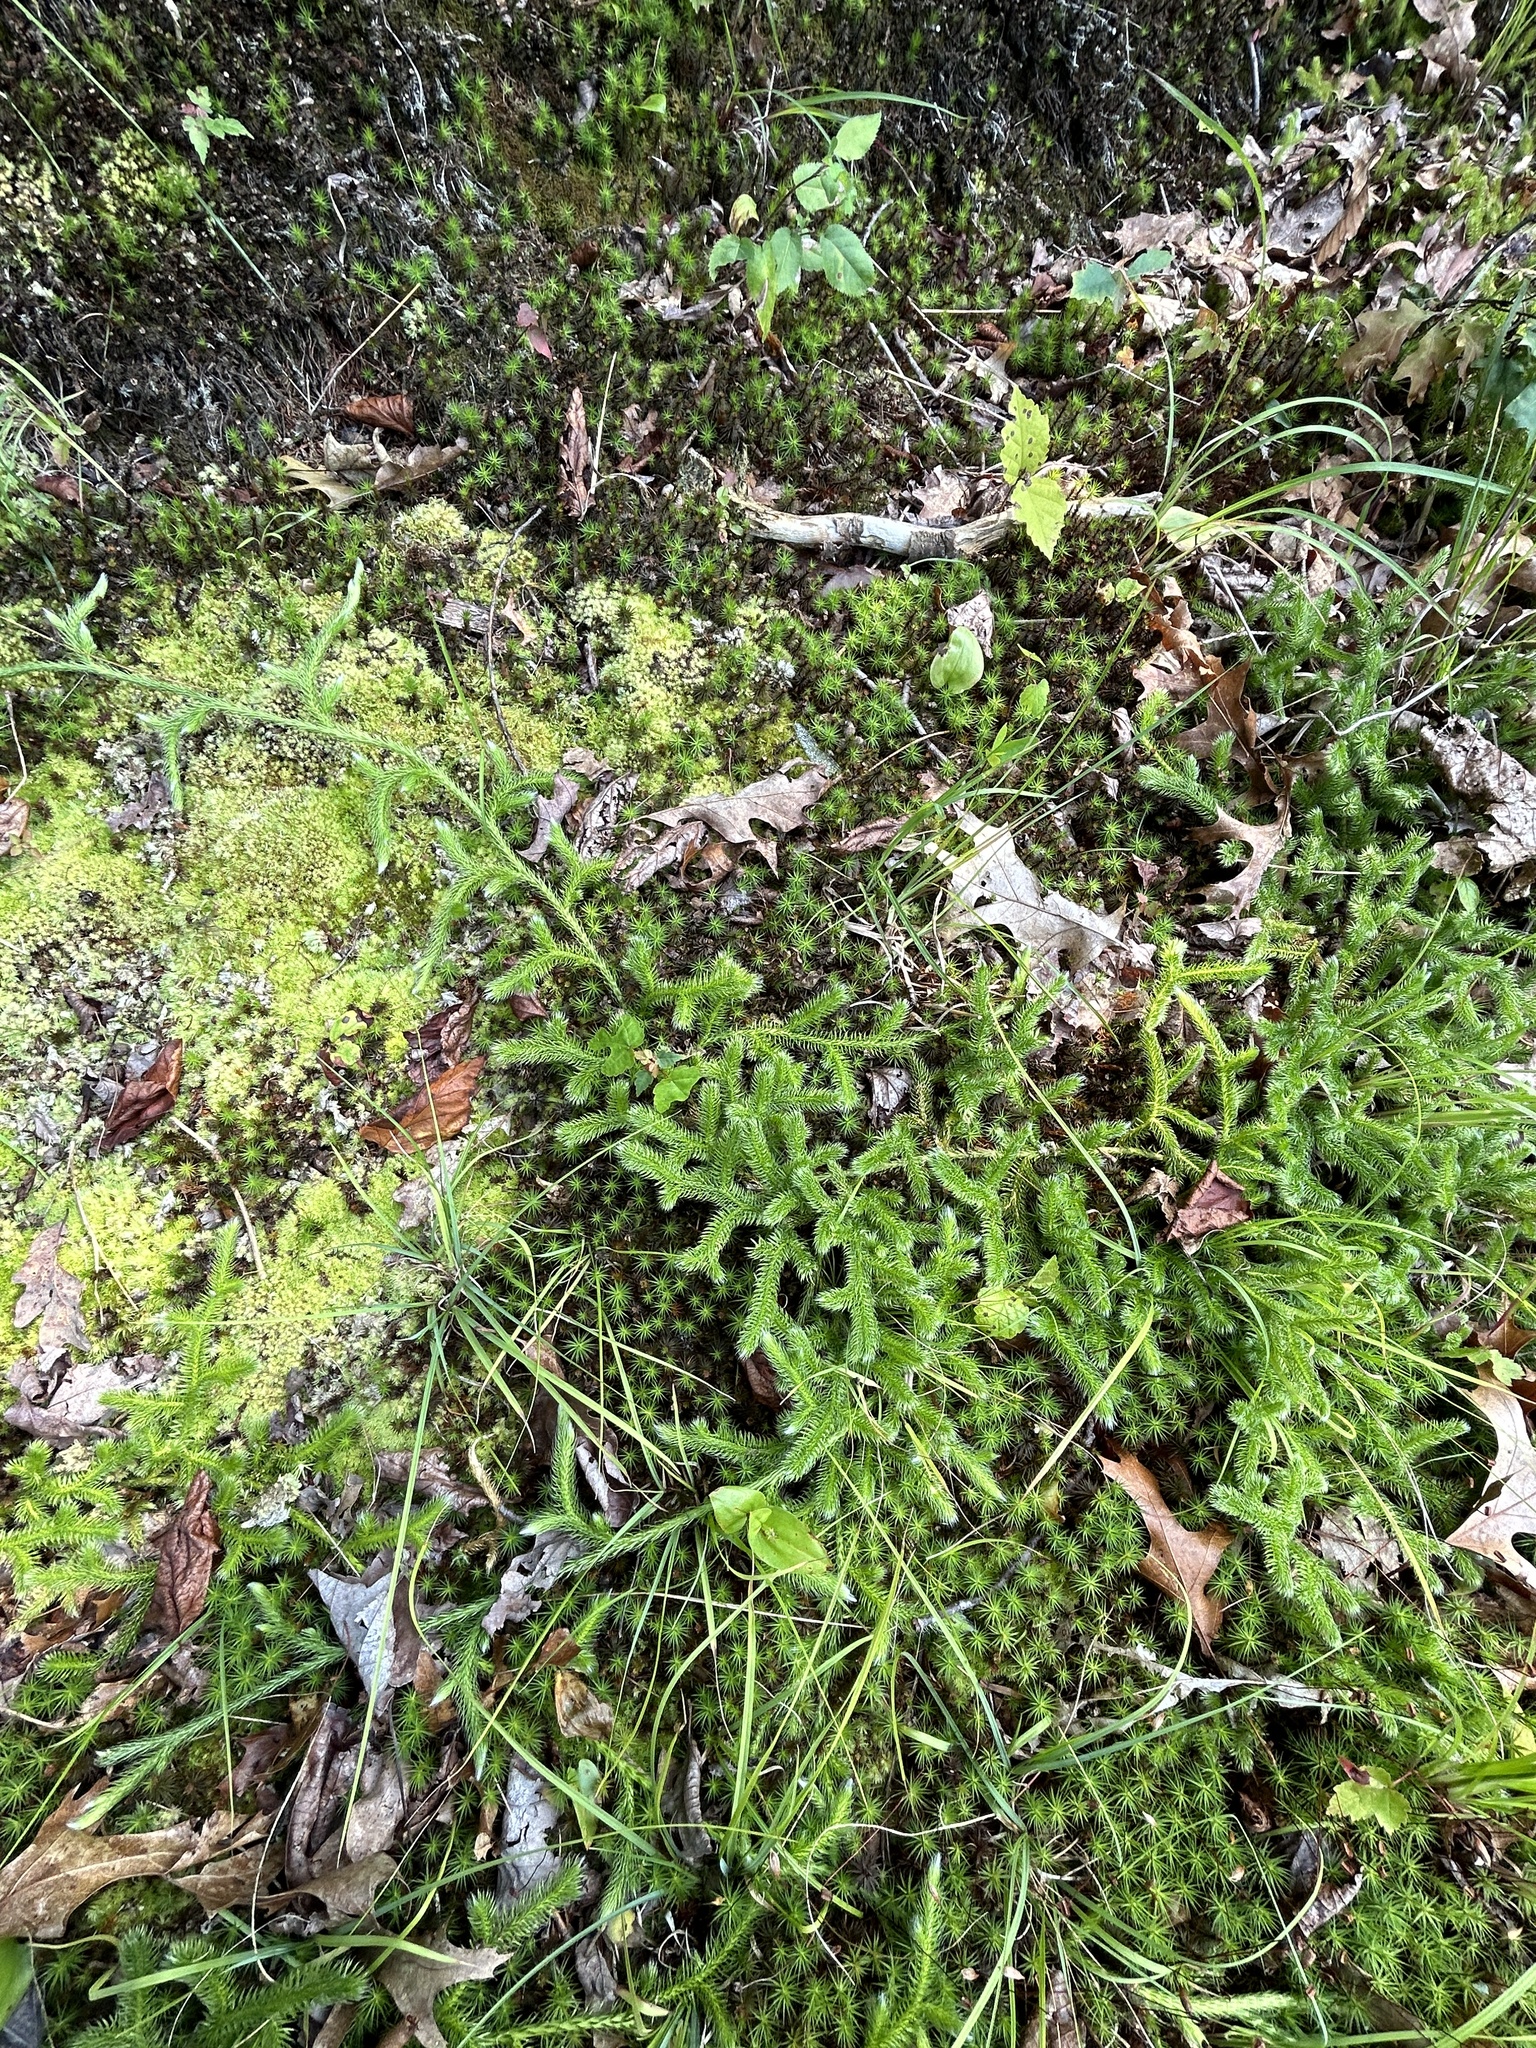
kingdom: Plantae
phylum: Tracheophyta
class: Lycopodiopsida
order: Lycopodiales
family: Lycopodiaceae
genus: Lycopodium
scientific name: Lycopodium clavatum
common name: Stag's-horn clubmoss
